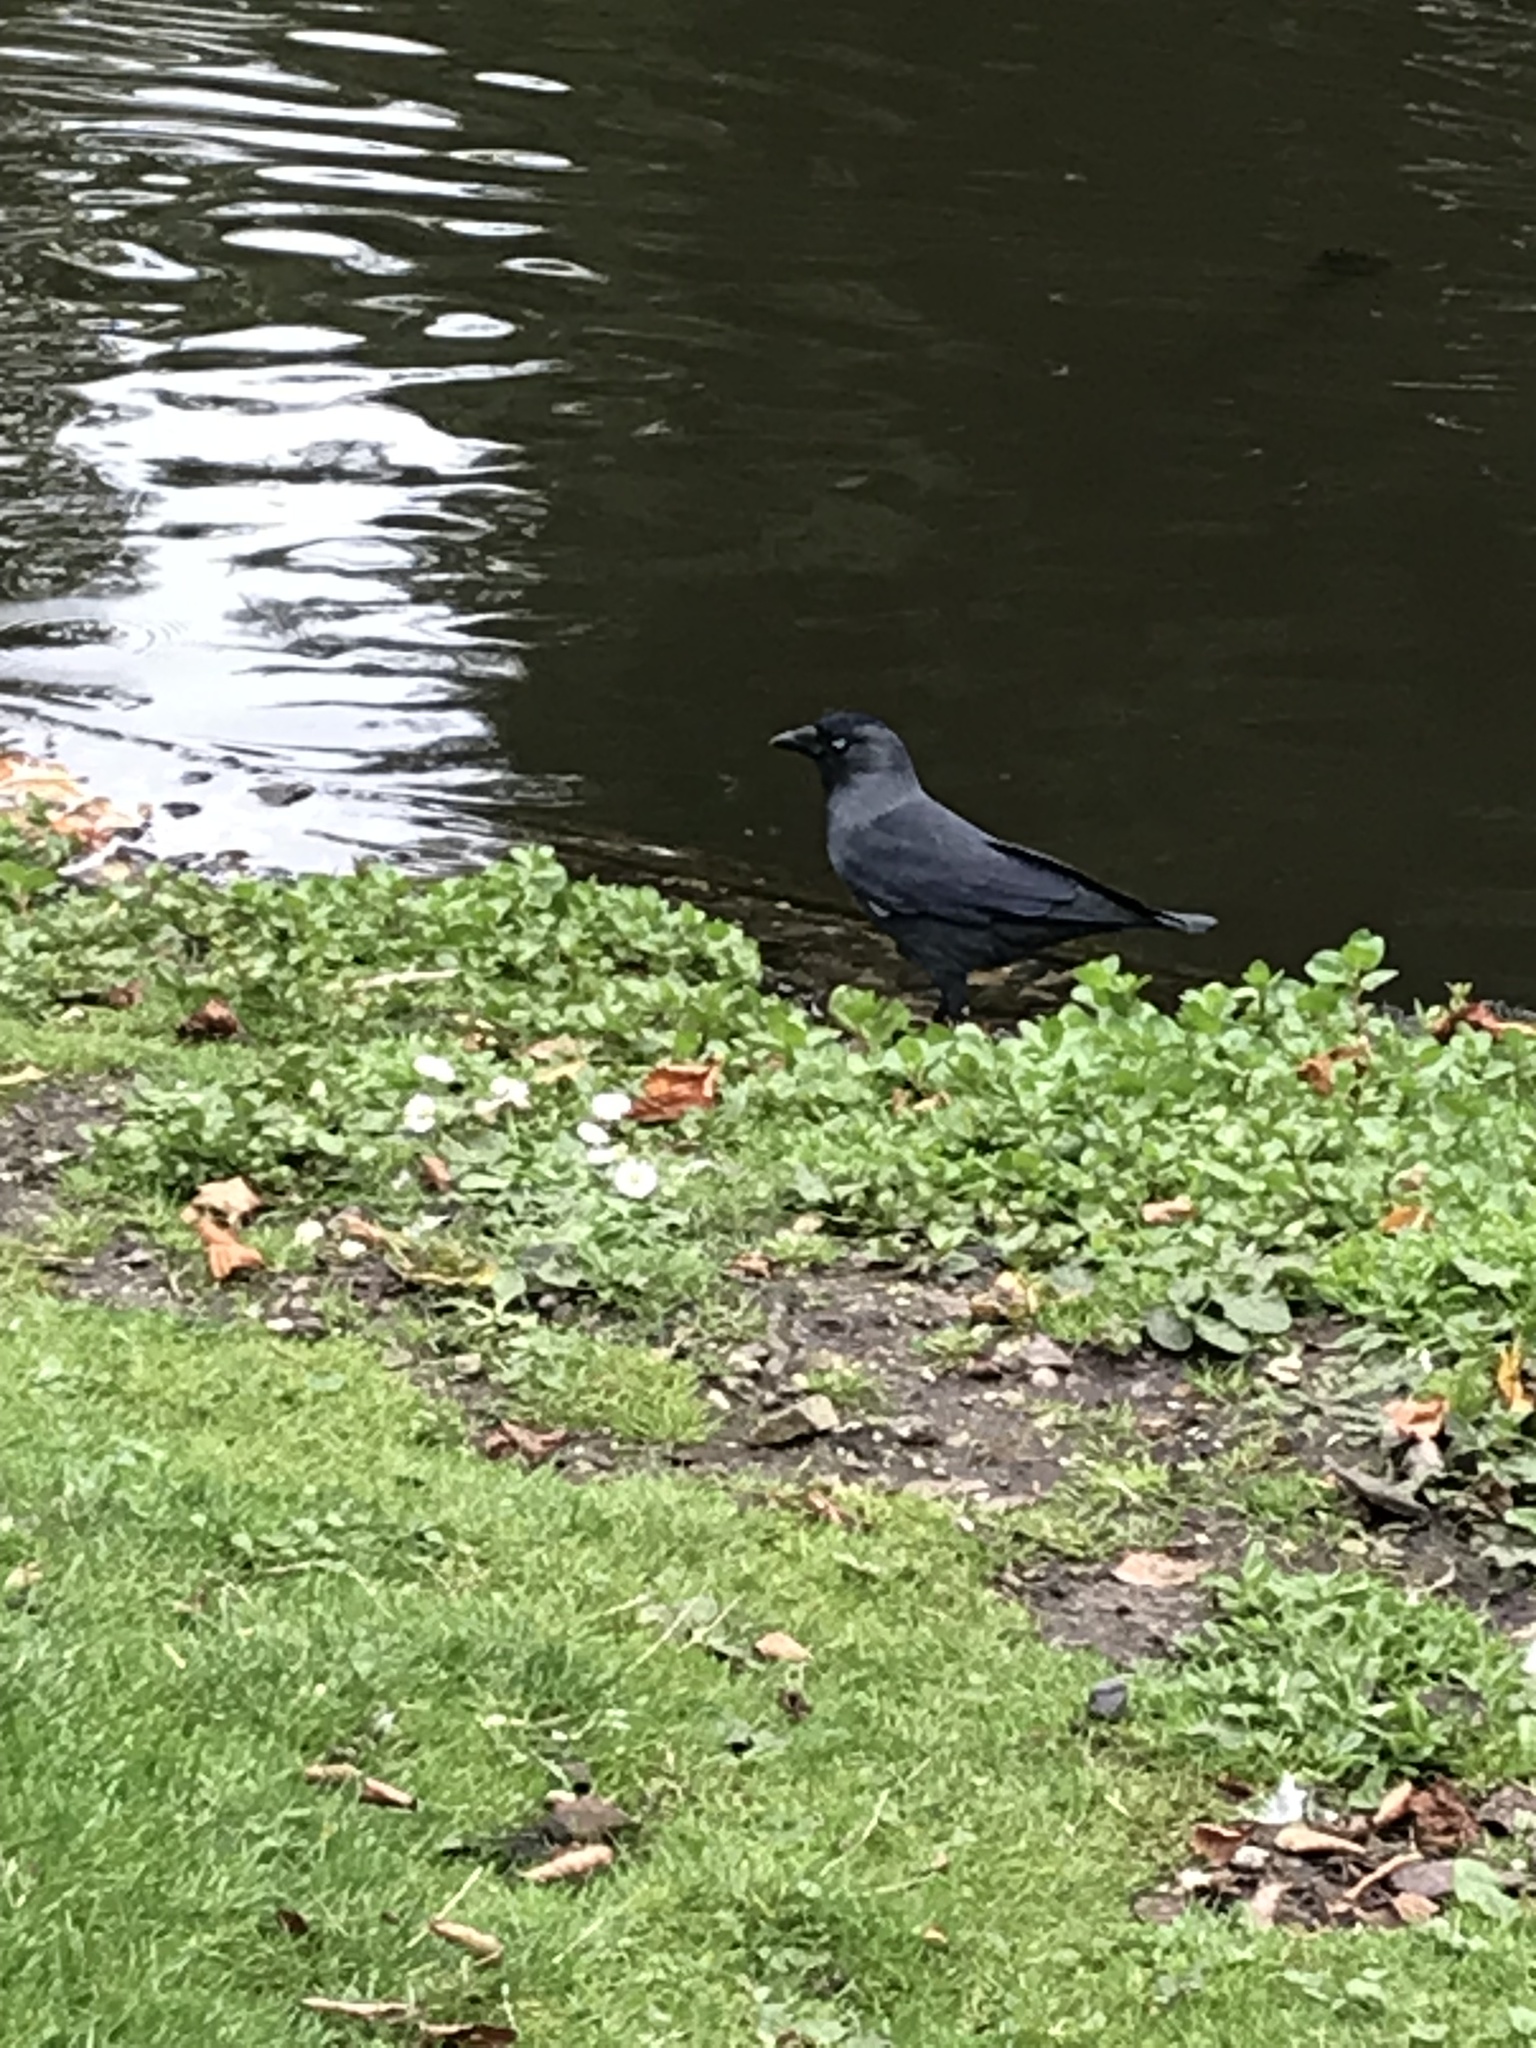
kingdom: Animalia
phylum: Chordata
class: Aves
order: Passeriformes
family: Corvidae
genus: Coloeus
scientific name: Coloeus monedula
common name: Western jackdaw
